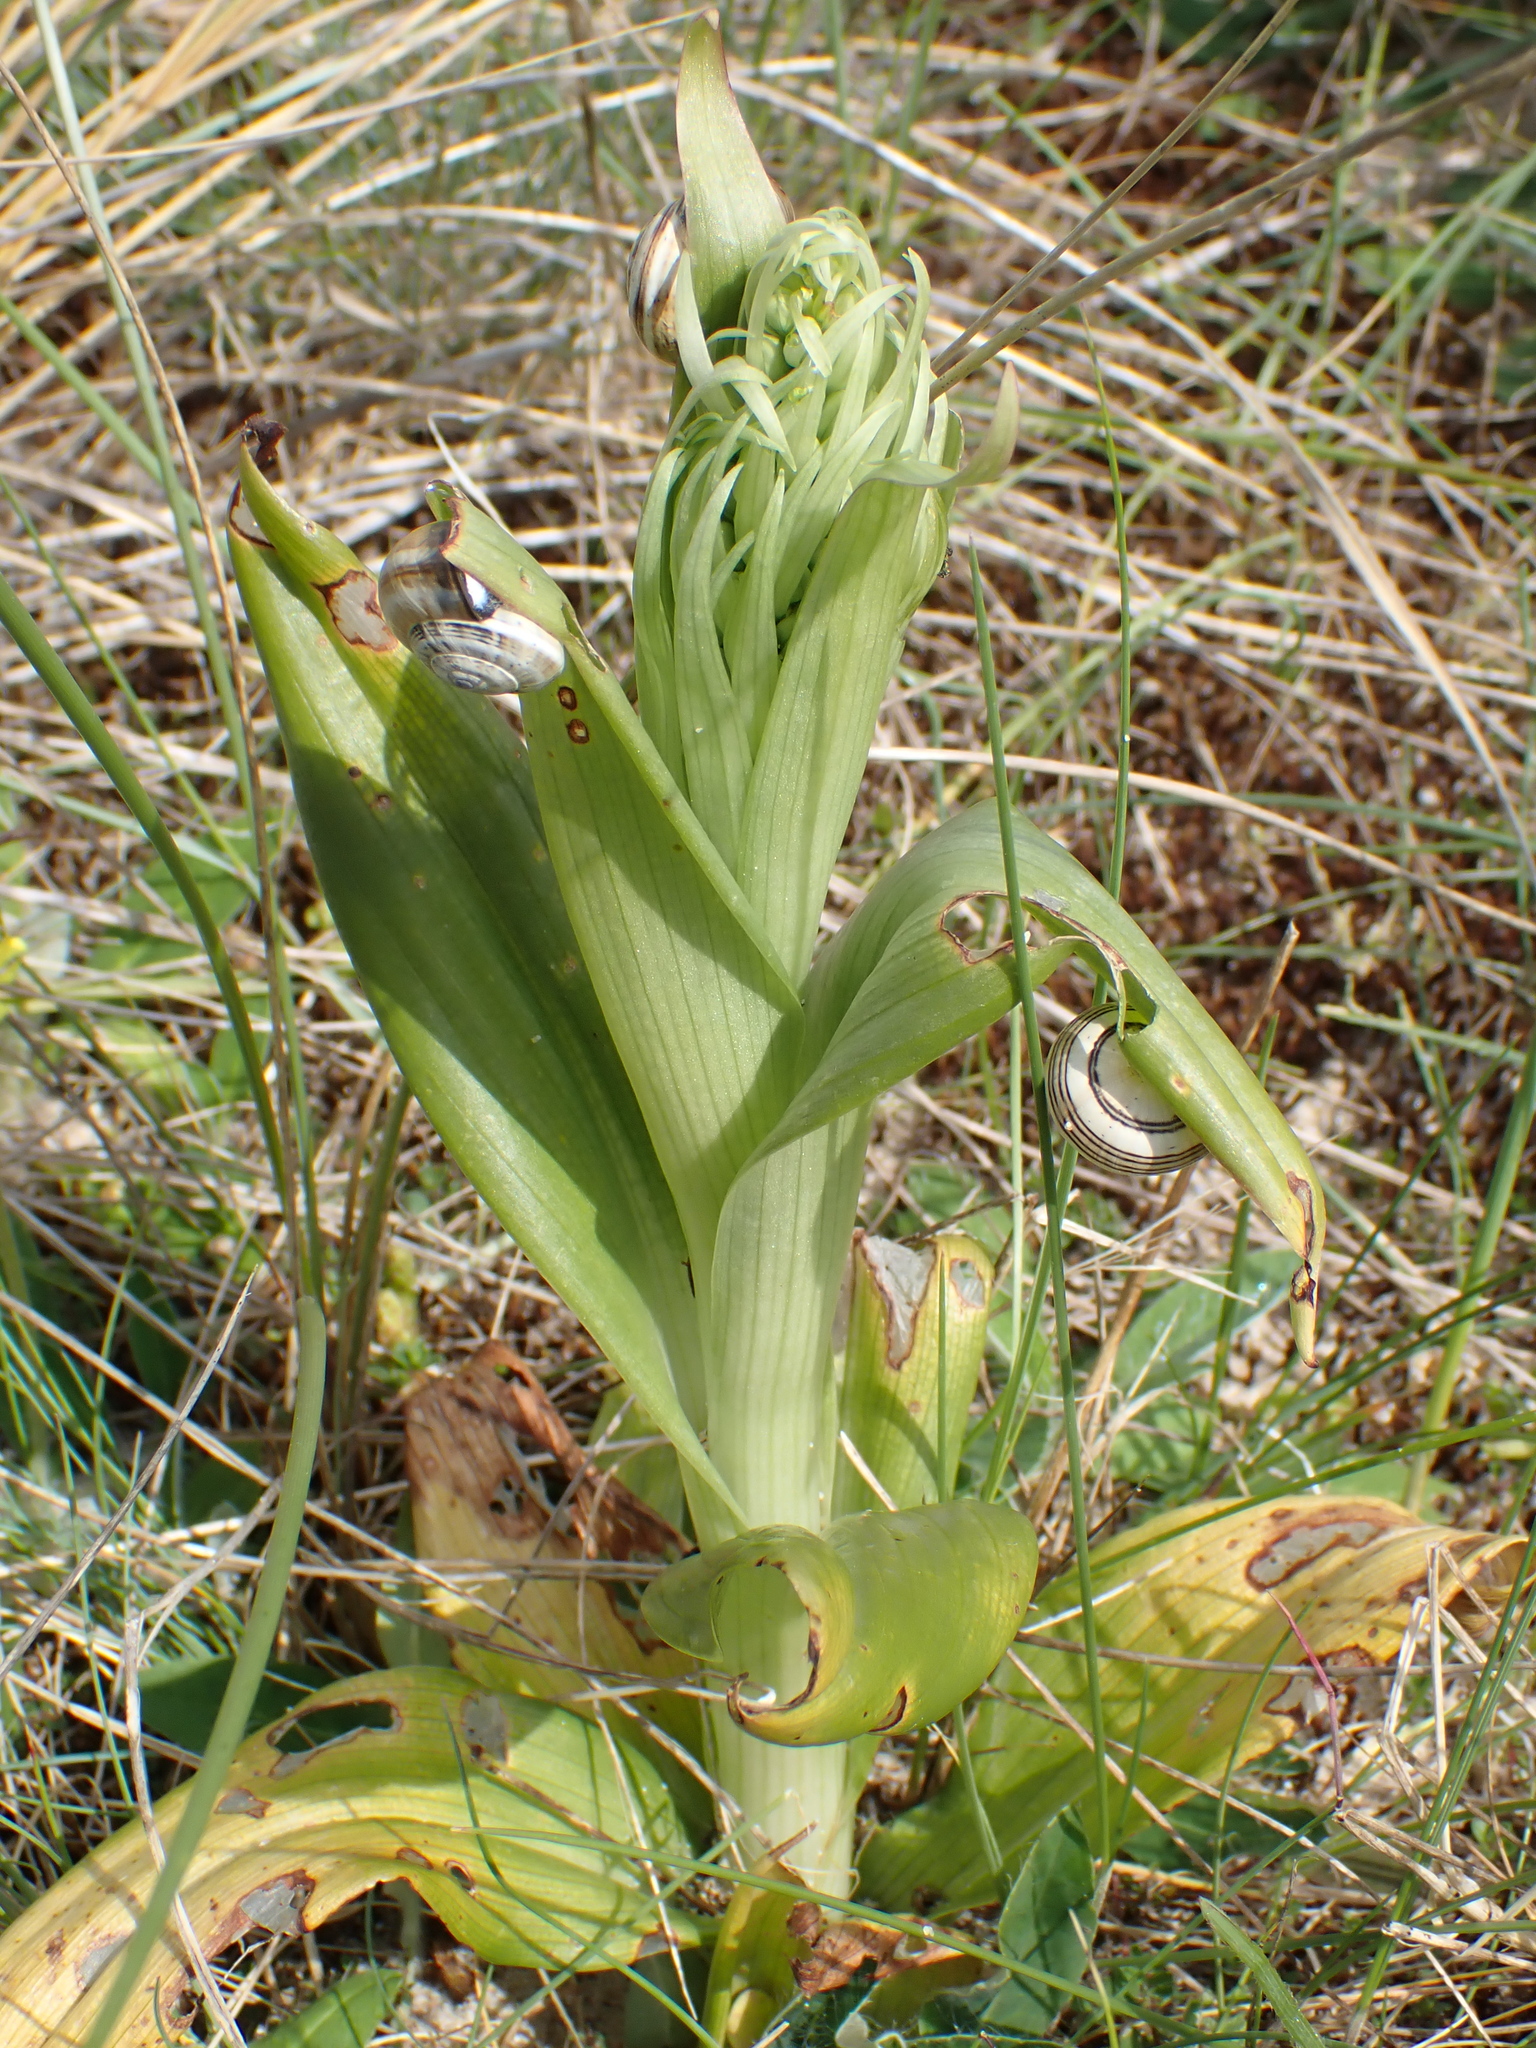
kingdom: Plantae
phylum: Tracheophyta
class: Liliopsida
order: Asparagales
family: Orchidaceae
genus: Himantoglossum
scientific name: Himantoglossum hircinum
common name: Lizard orchid
